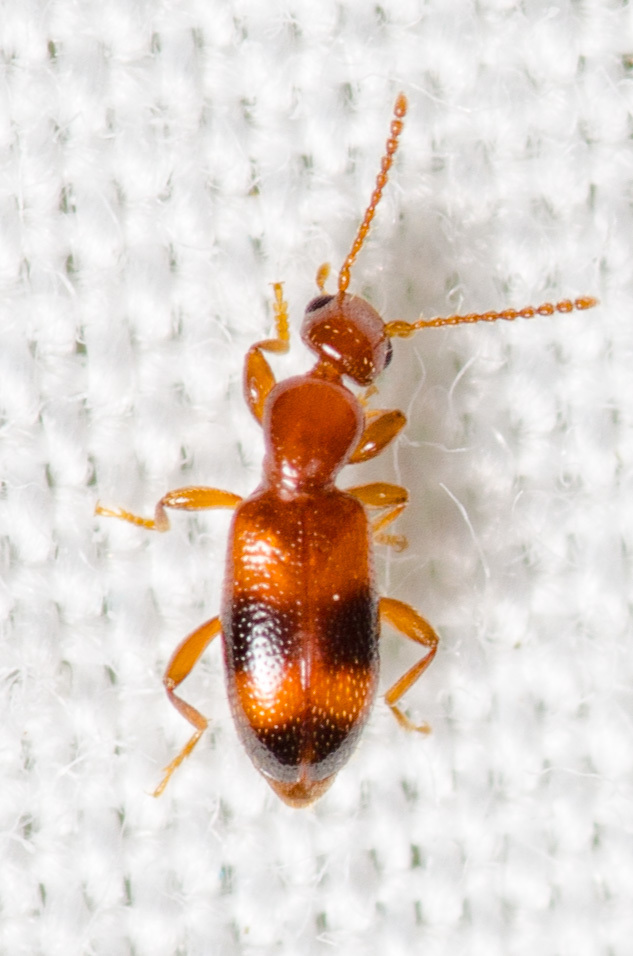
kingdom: Animalia
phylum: Arthropoda
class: Insecta
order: Coleoptera
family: Anthicidae
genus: Vacusus
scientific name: Vacusus vicinus
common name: Antlike flower beetle
